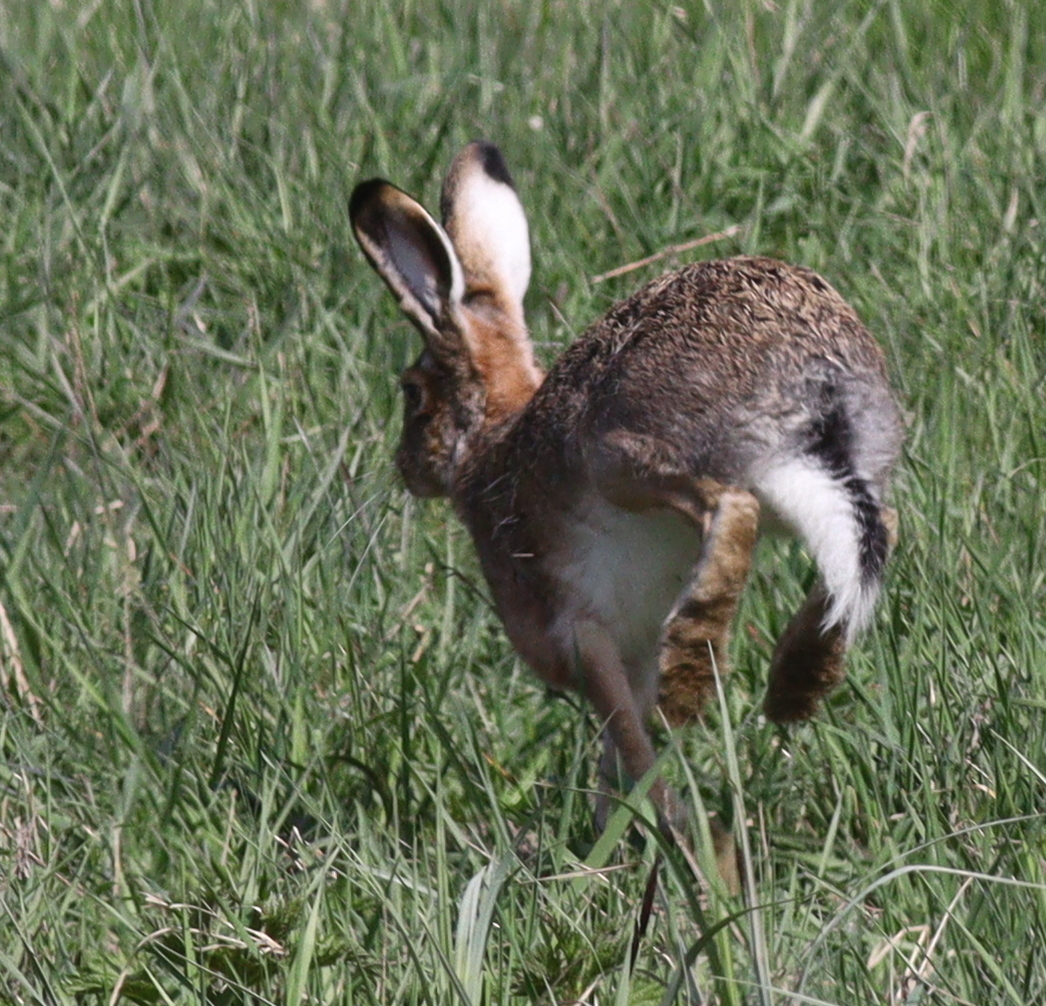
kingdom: Animalia
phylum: Chordata
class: Mammalia
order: Lagomorpha
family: Leporidae
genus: Lepus
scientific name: Lepus europaeus
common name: European hare
